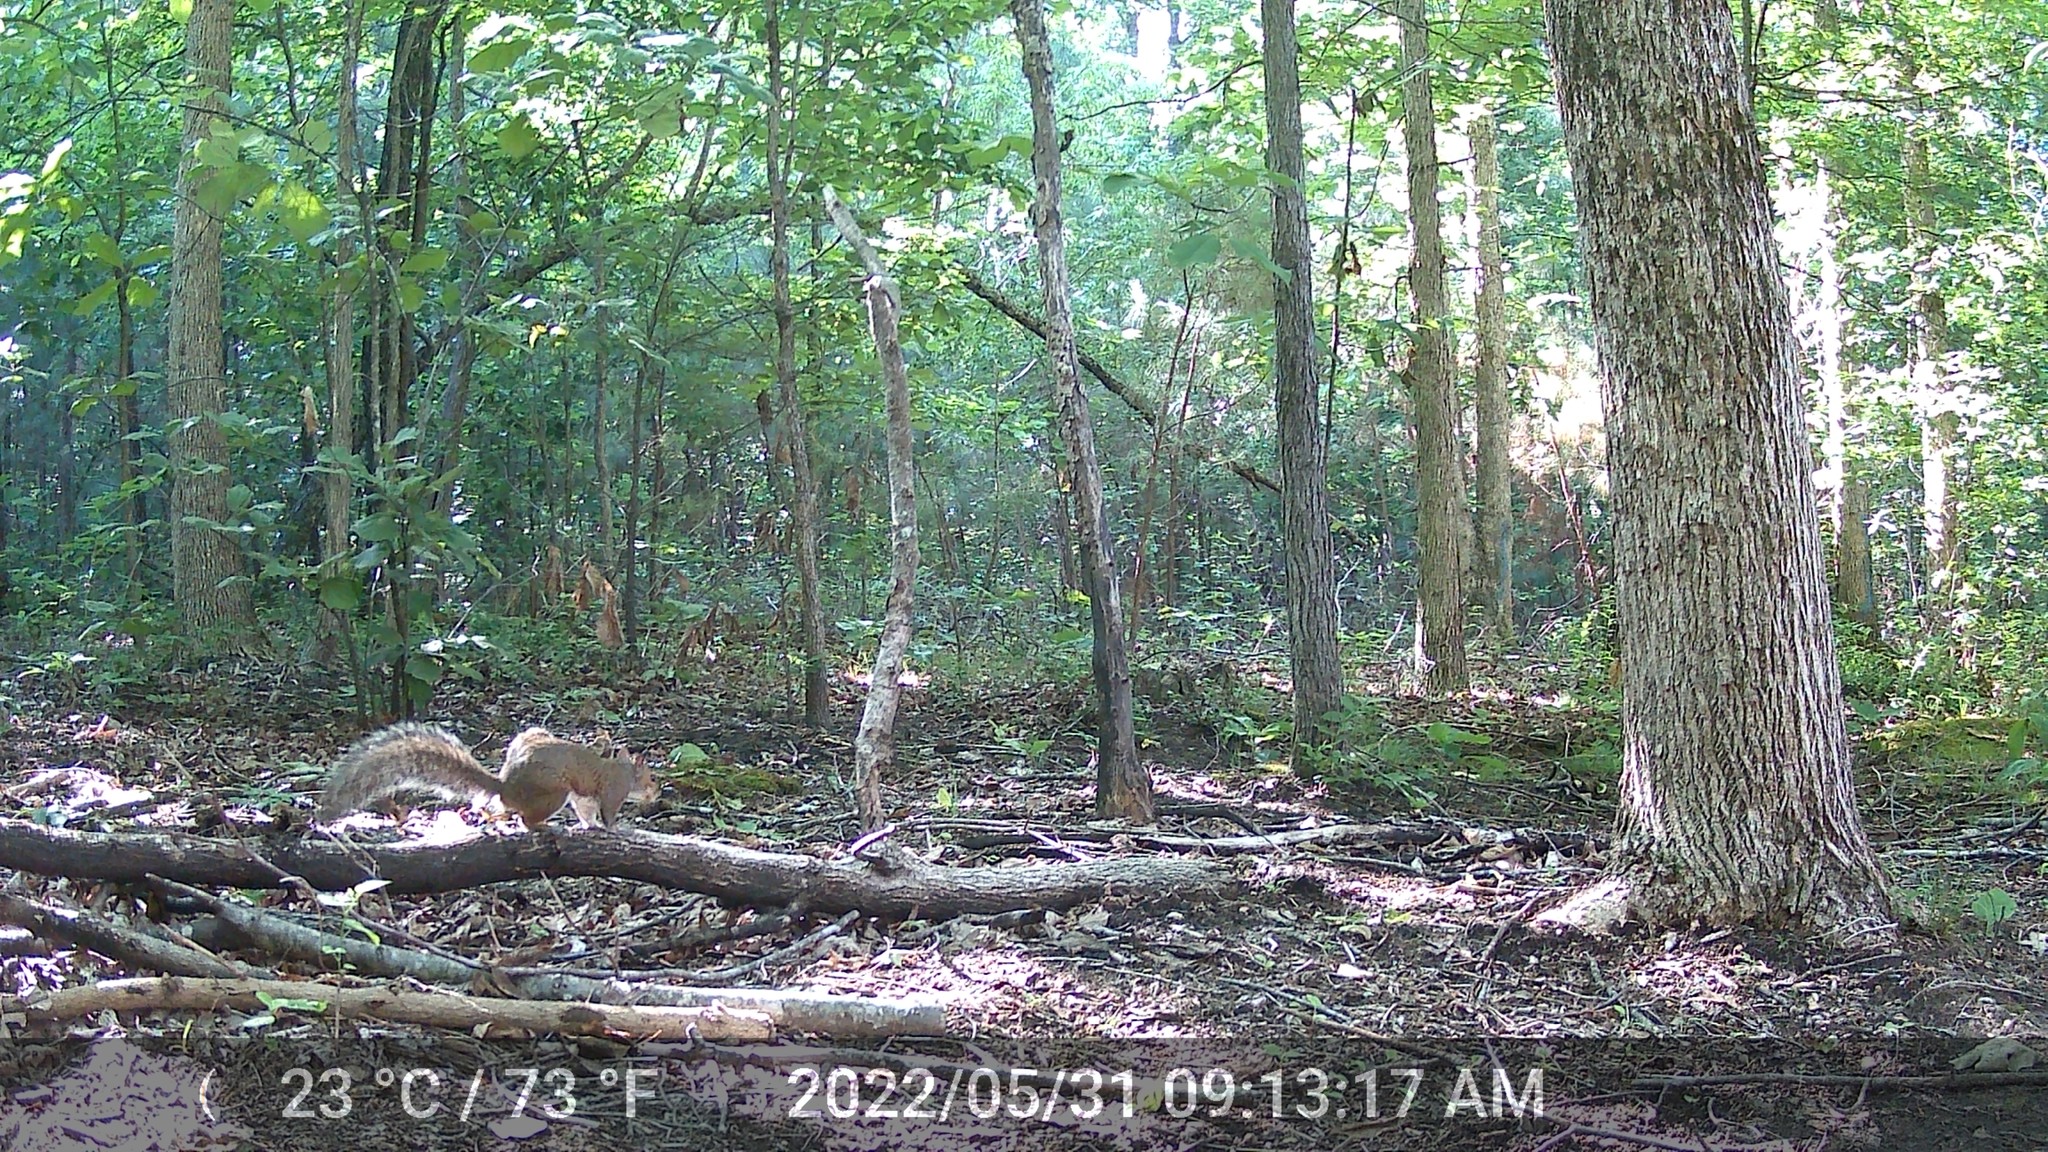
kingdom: Animalia
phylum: Chordata
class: Mammalia
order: Rodentia
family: Sciuridae
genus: Sciurus
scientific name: Sciurus carolinensis
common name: Eastern gray squirrel
